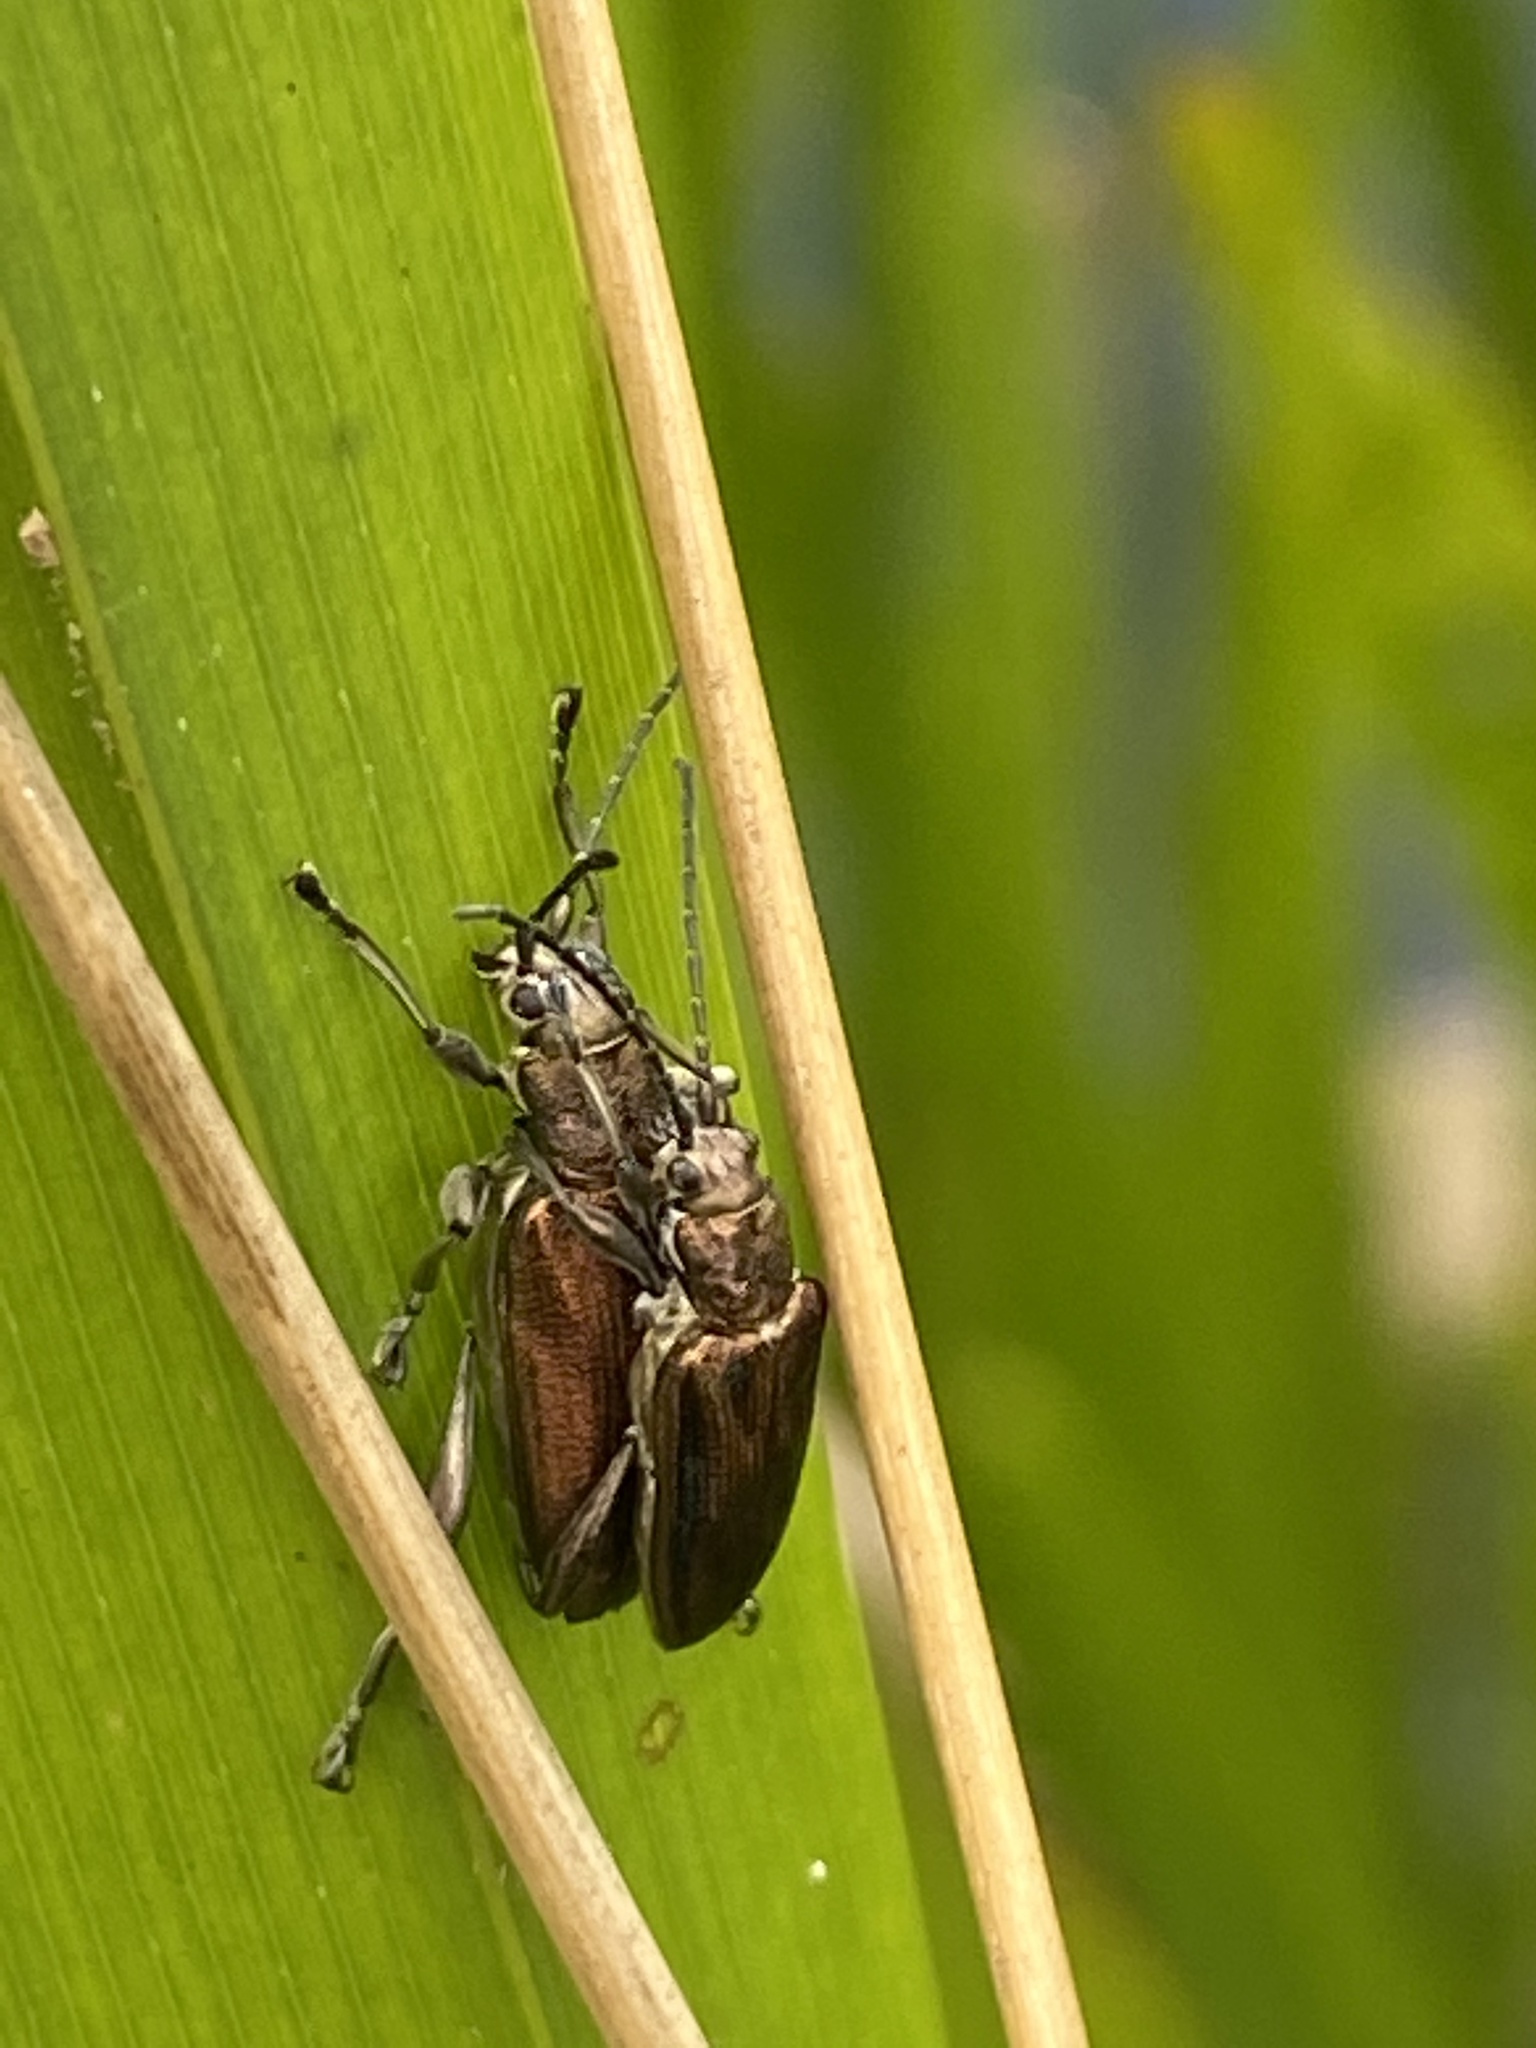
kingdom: Animalia
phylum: Arthropoda
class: Insecta
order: Coleoptera
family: Chrysomelidae
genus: Donacia
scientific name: Donacia marginata
